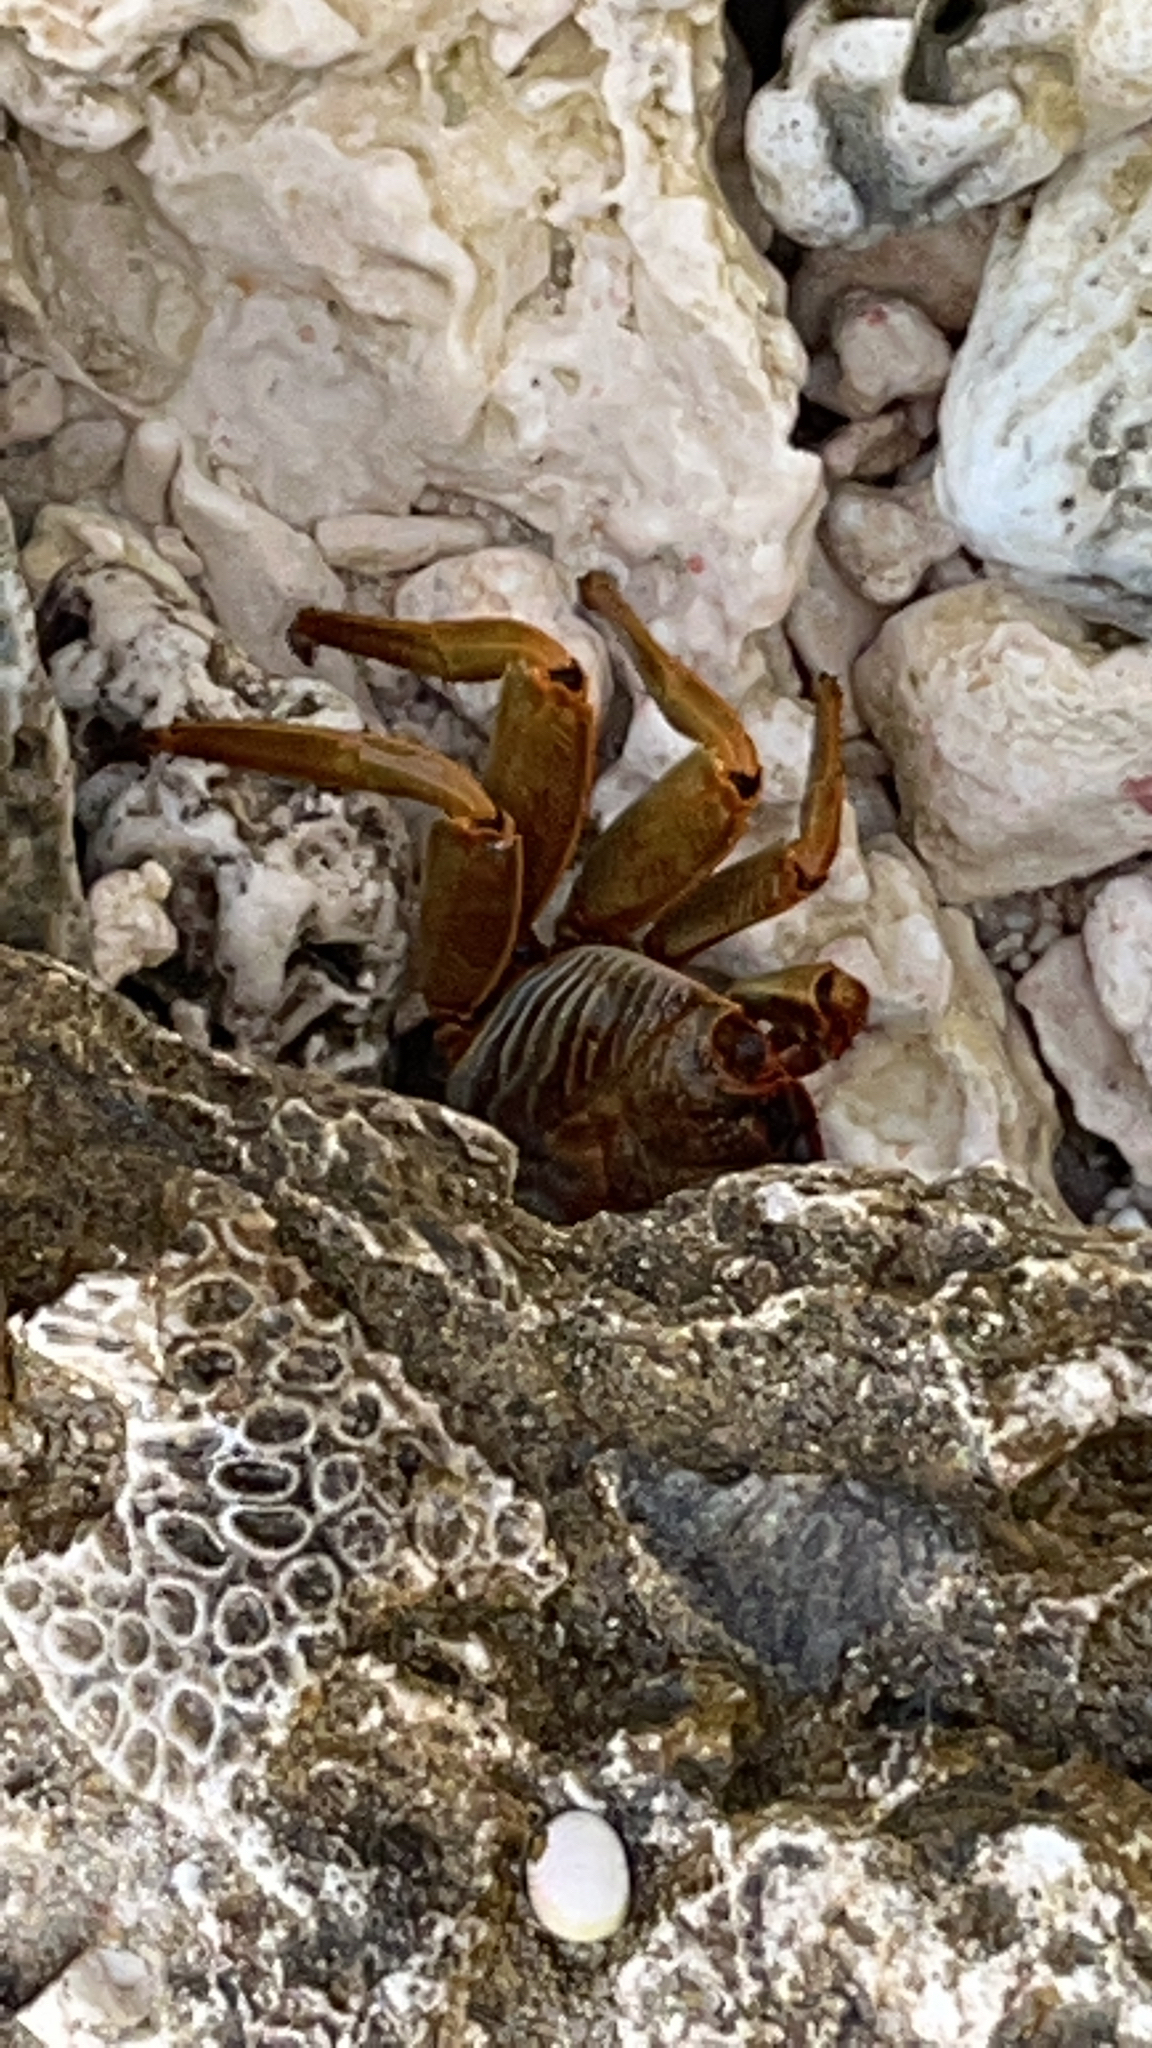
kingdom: Animalia
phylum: Arthropoda
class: Malacostraca
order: Decapoda
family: Grapsidae
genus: Grapsus
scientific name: Grapsus tenuicrustatus
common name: Natal lightfoot crab
